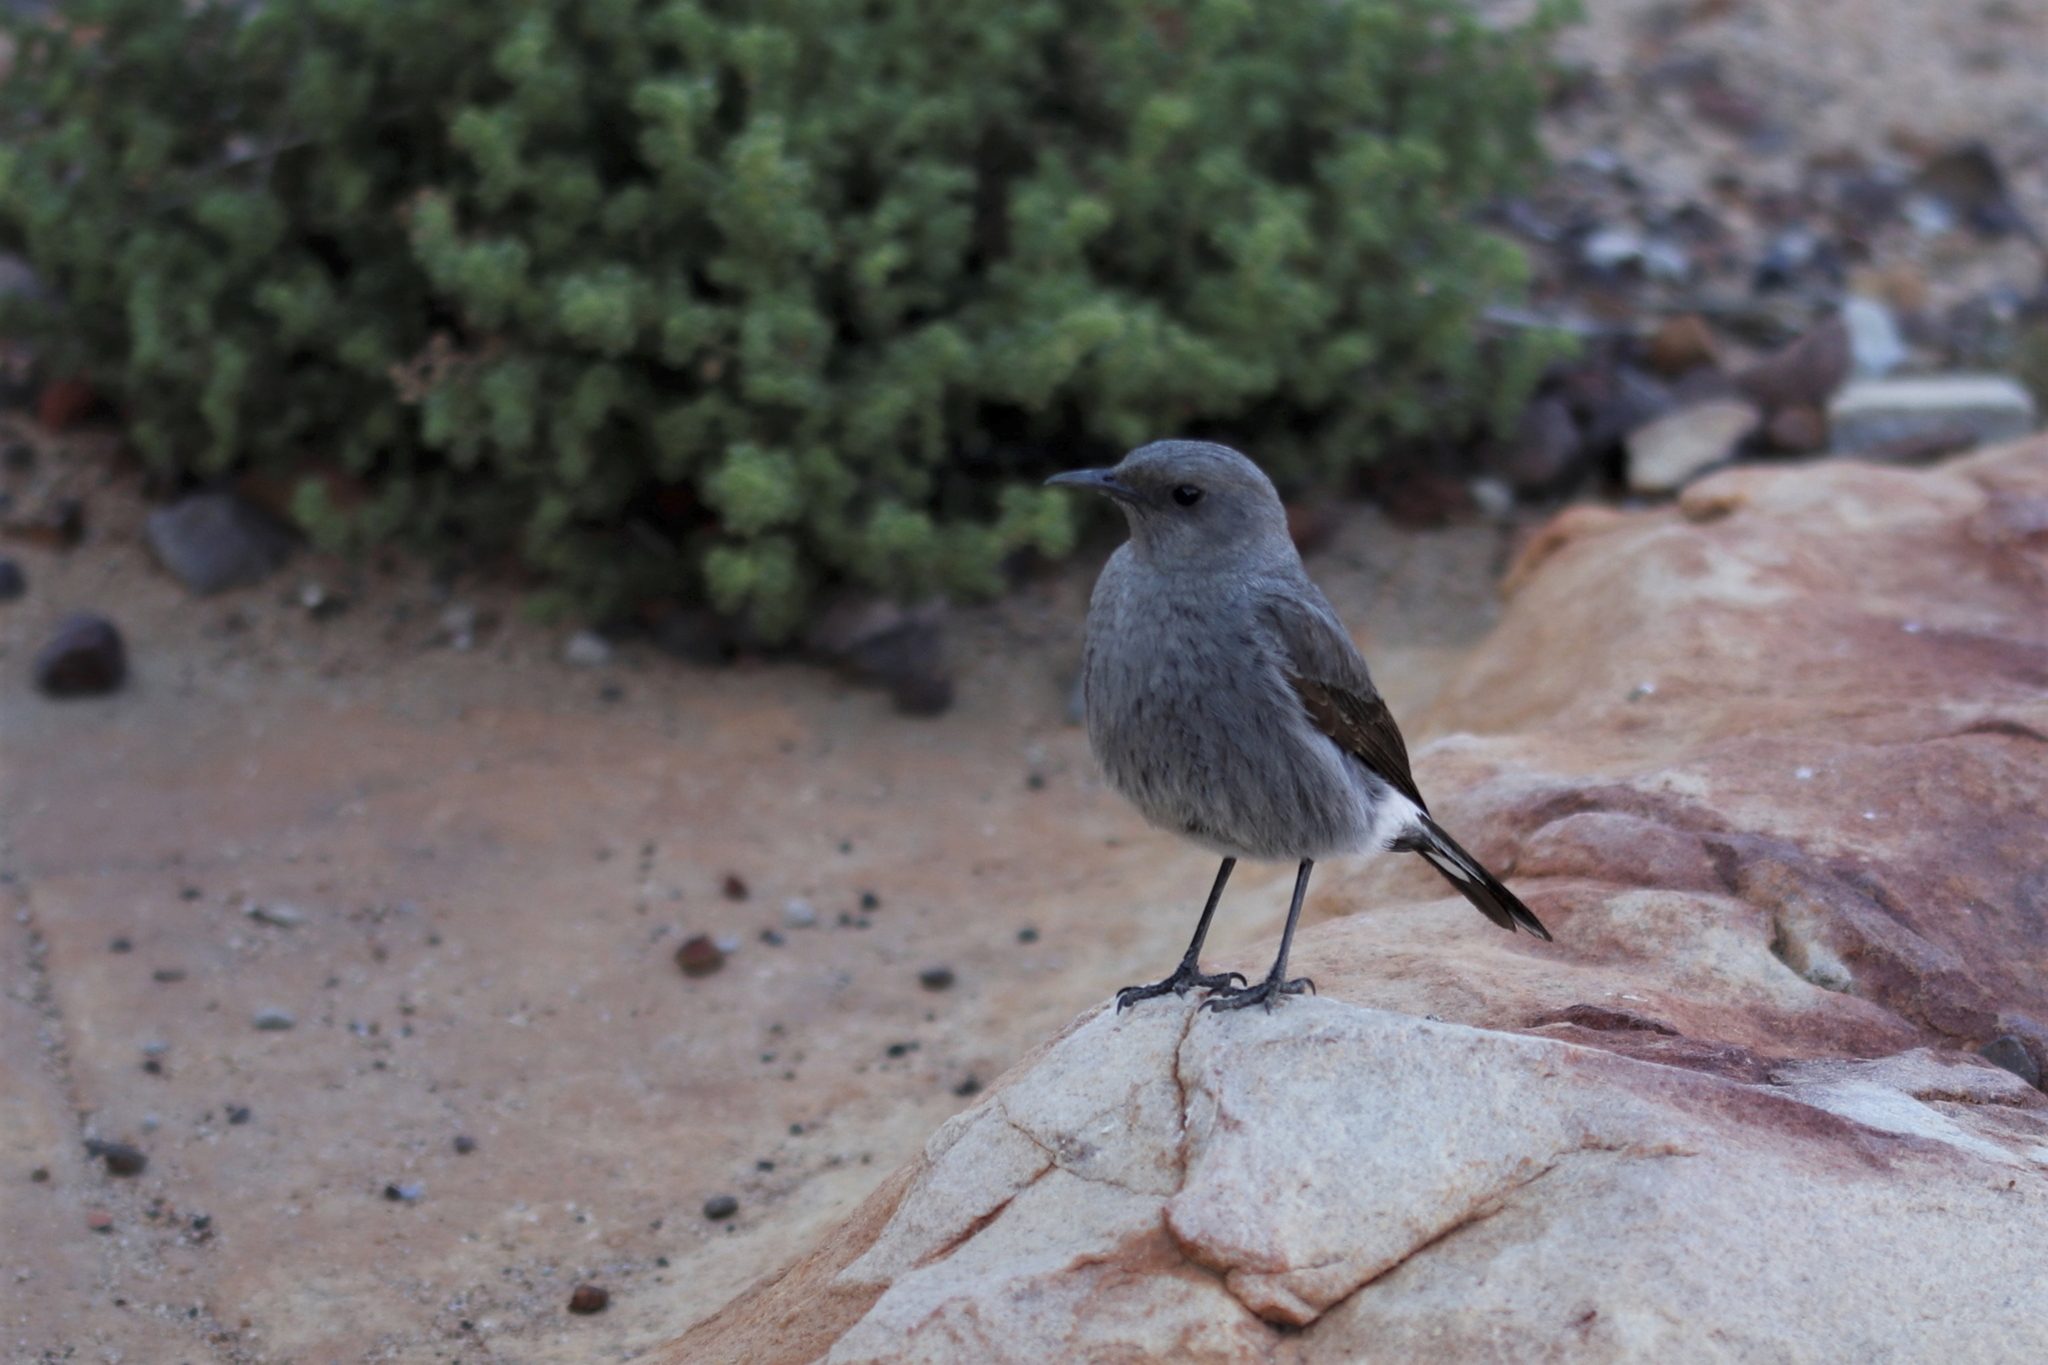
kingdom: Animalia
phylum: Chordata
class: Aves
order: Passeriformes
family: Muscicapidae
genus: Oenanthe
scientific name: Oenanthe monticola
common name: Mountain wheatear
